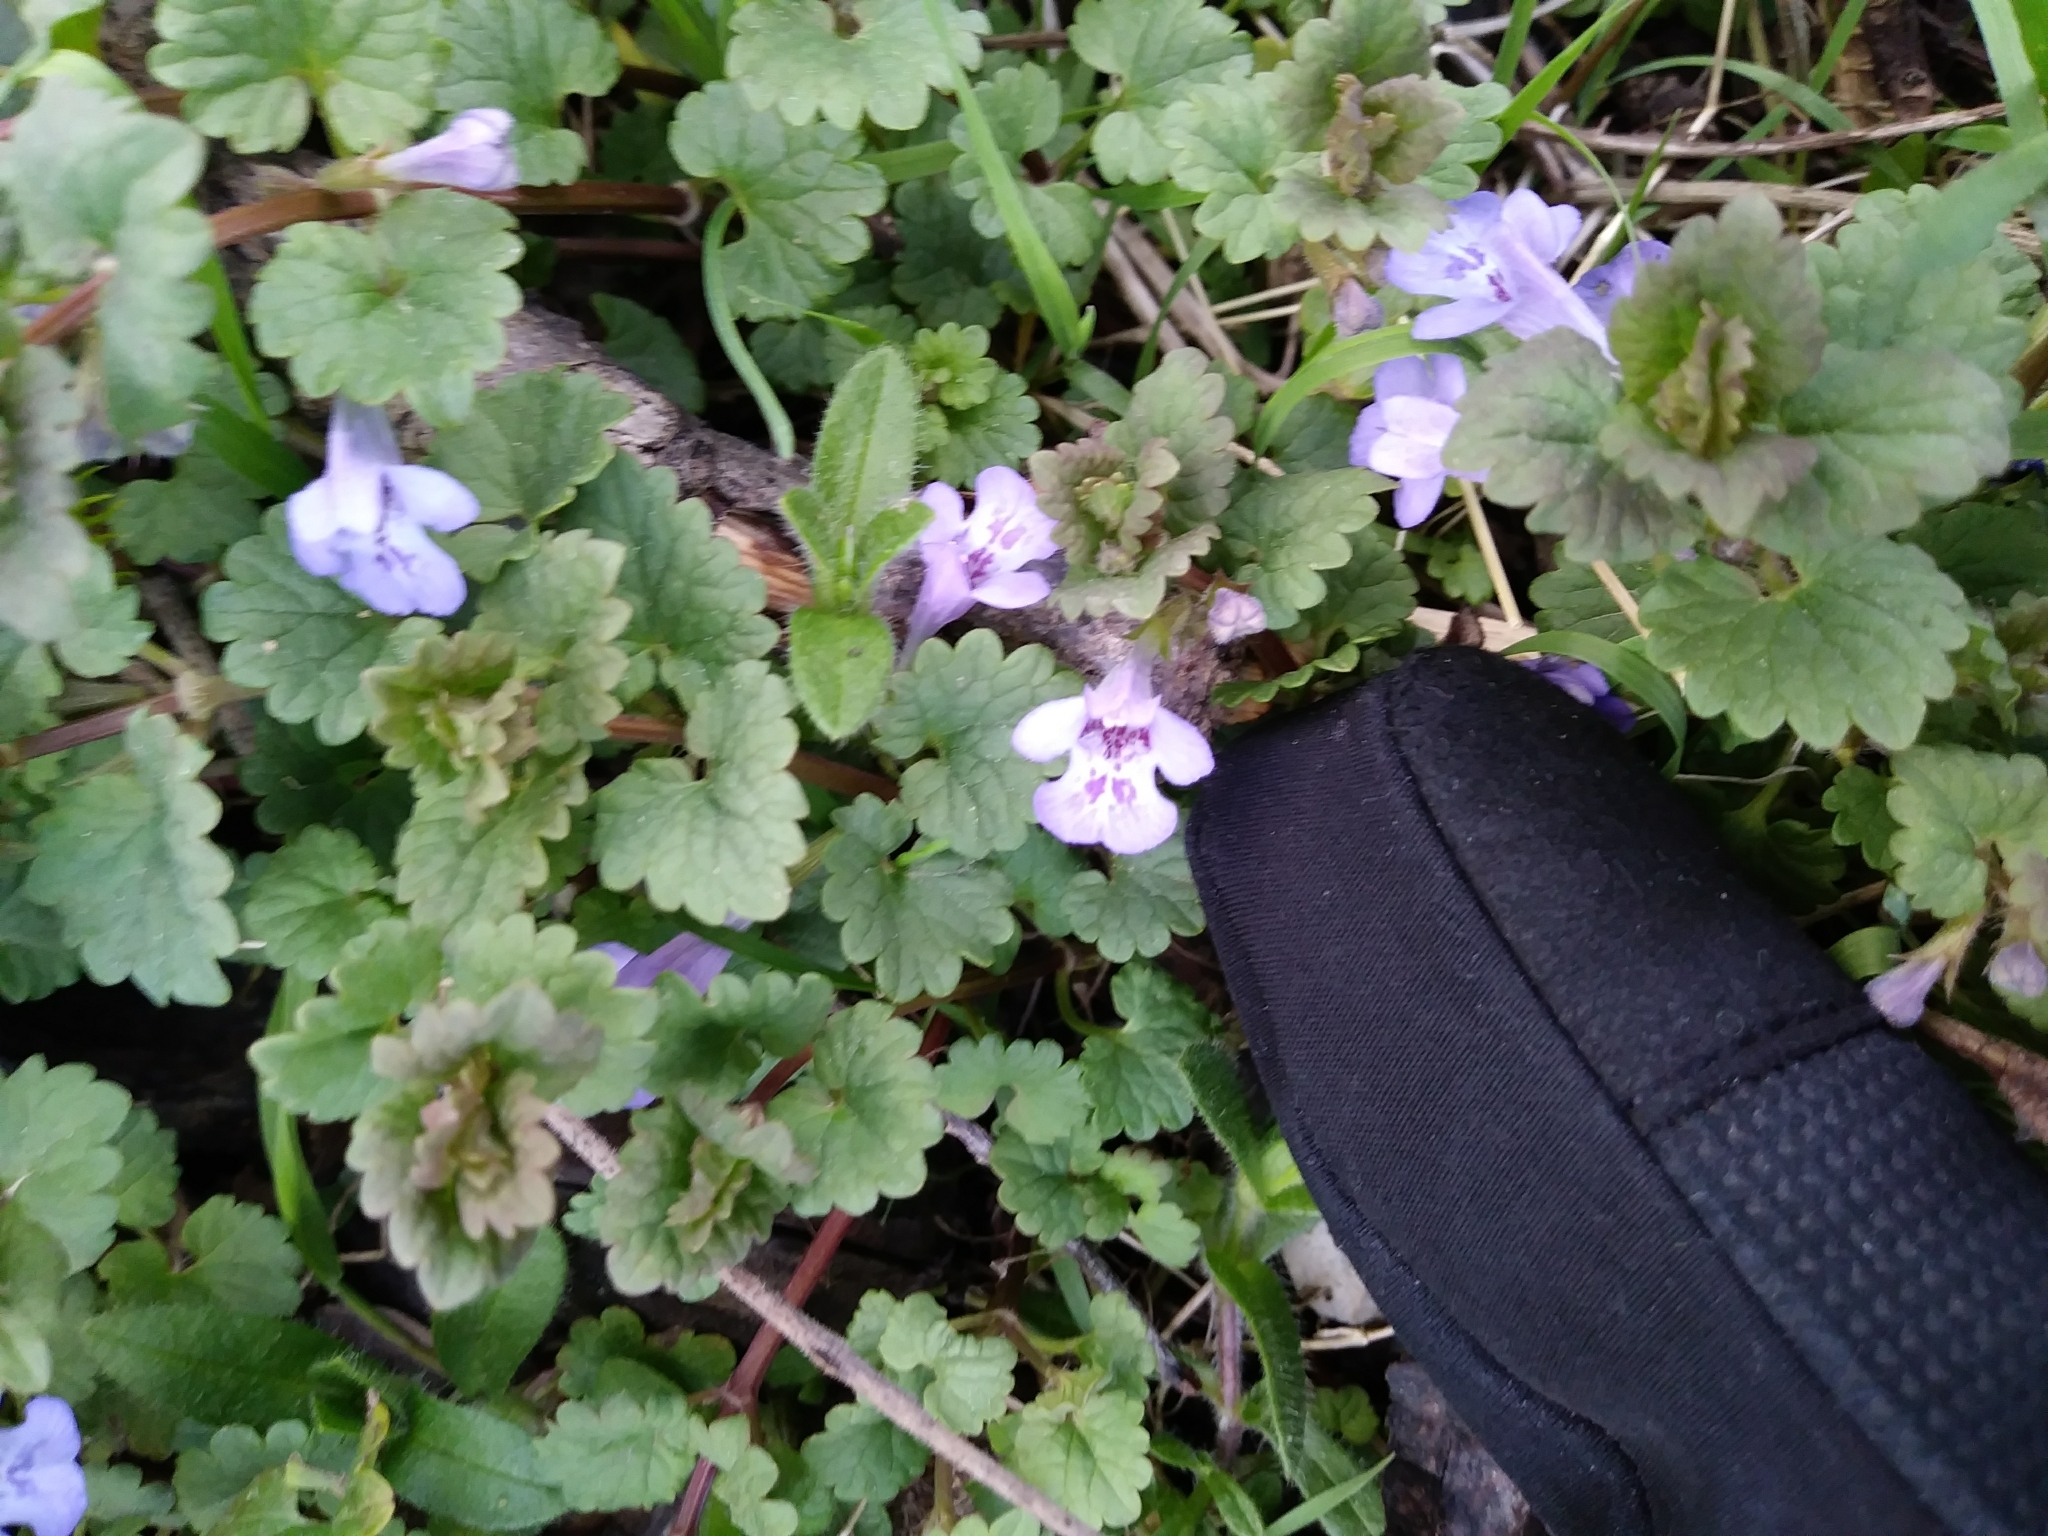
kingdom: Plantae
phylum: Tracheophyta
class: Magnoliopsida
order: Lamiales
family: Lamiaceae
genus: Glechoma
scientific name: Glechoma hederacea
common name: Ground ivy
